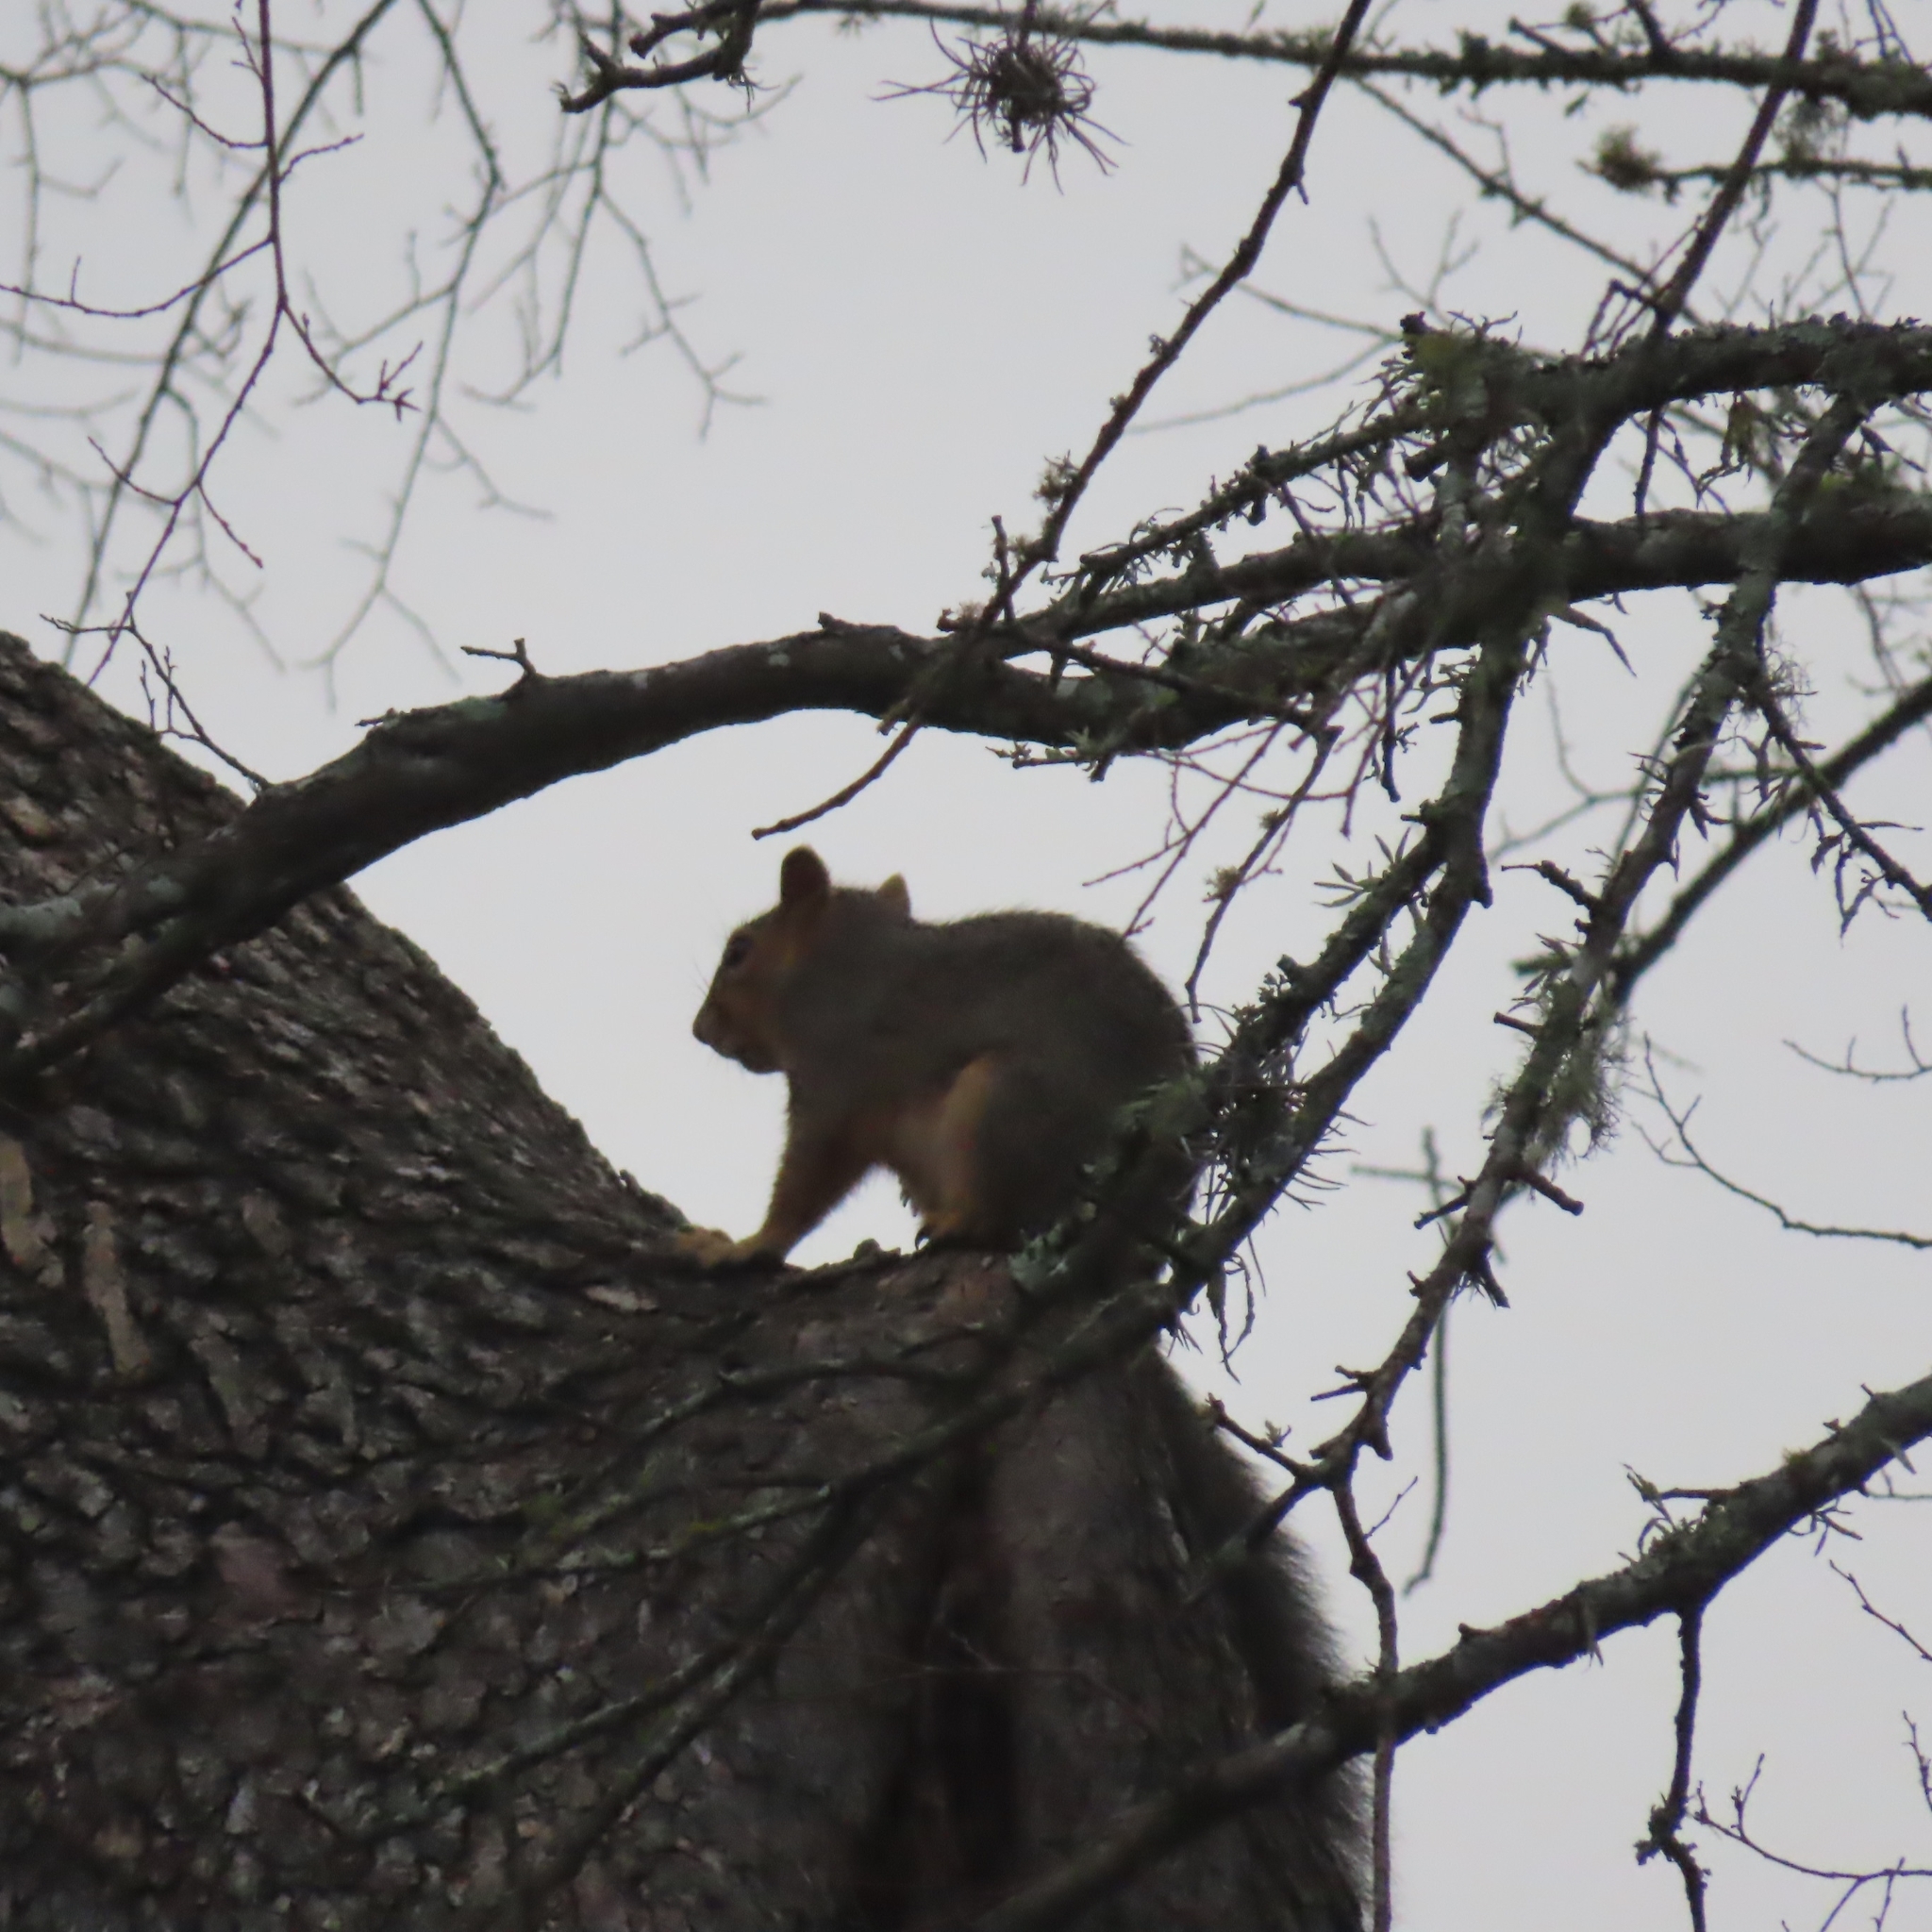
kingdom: Animalia
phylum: Chordata
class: Mammalia
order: Rodentia
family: Sciuridae
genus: Sciurus
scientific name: Sciurus niger
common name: Fox squirrel
